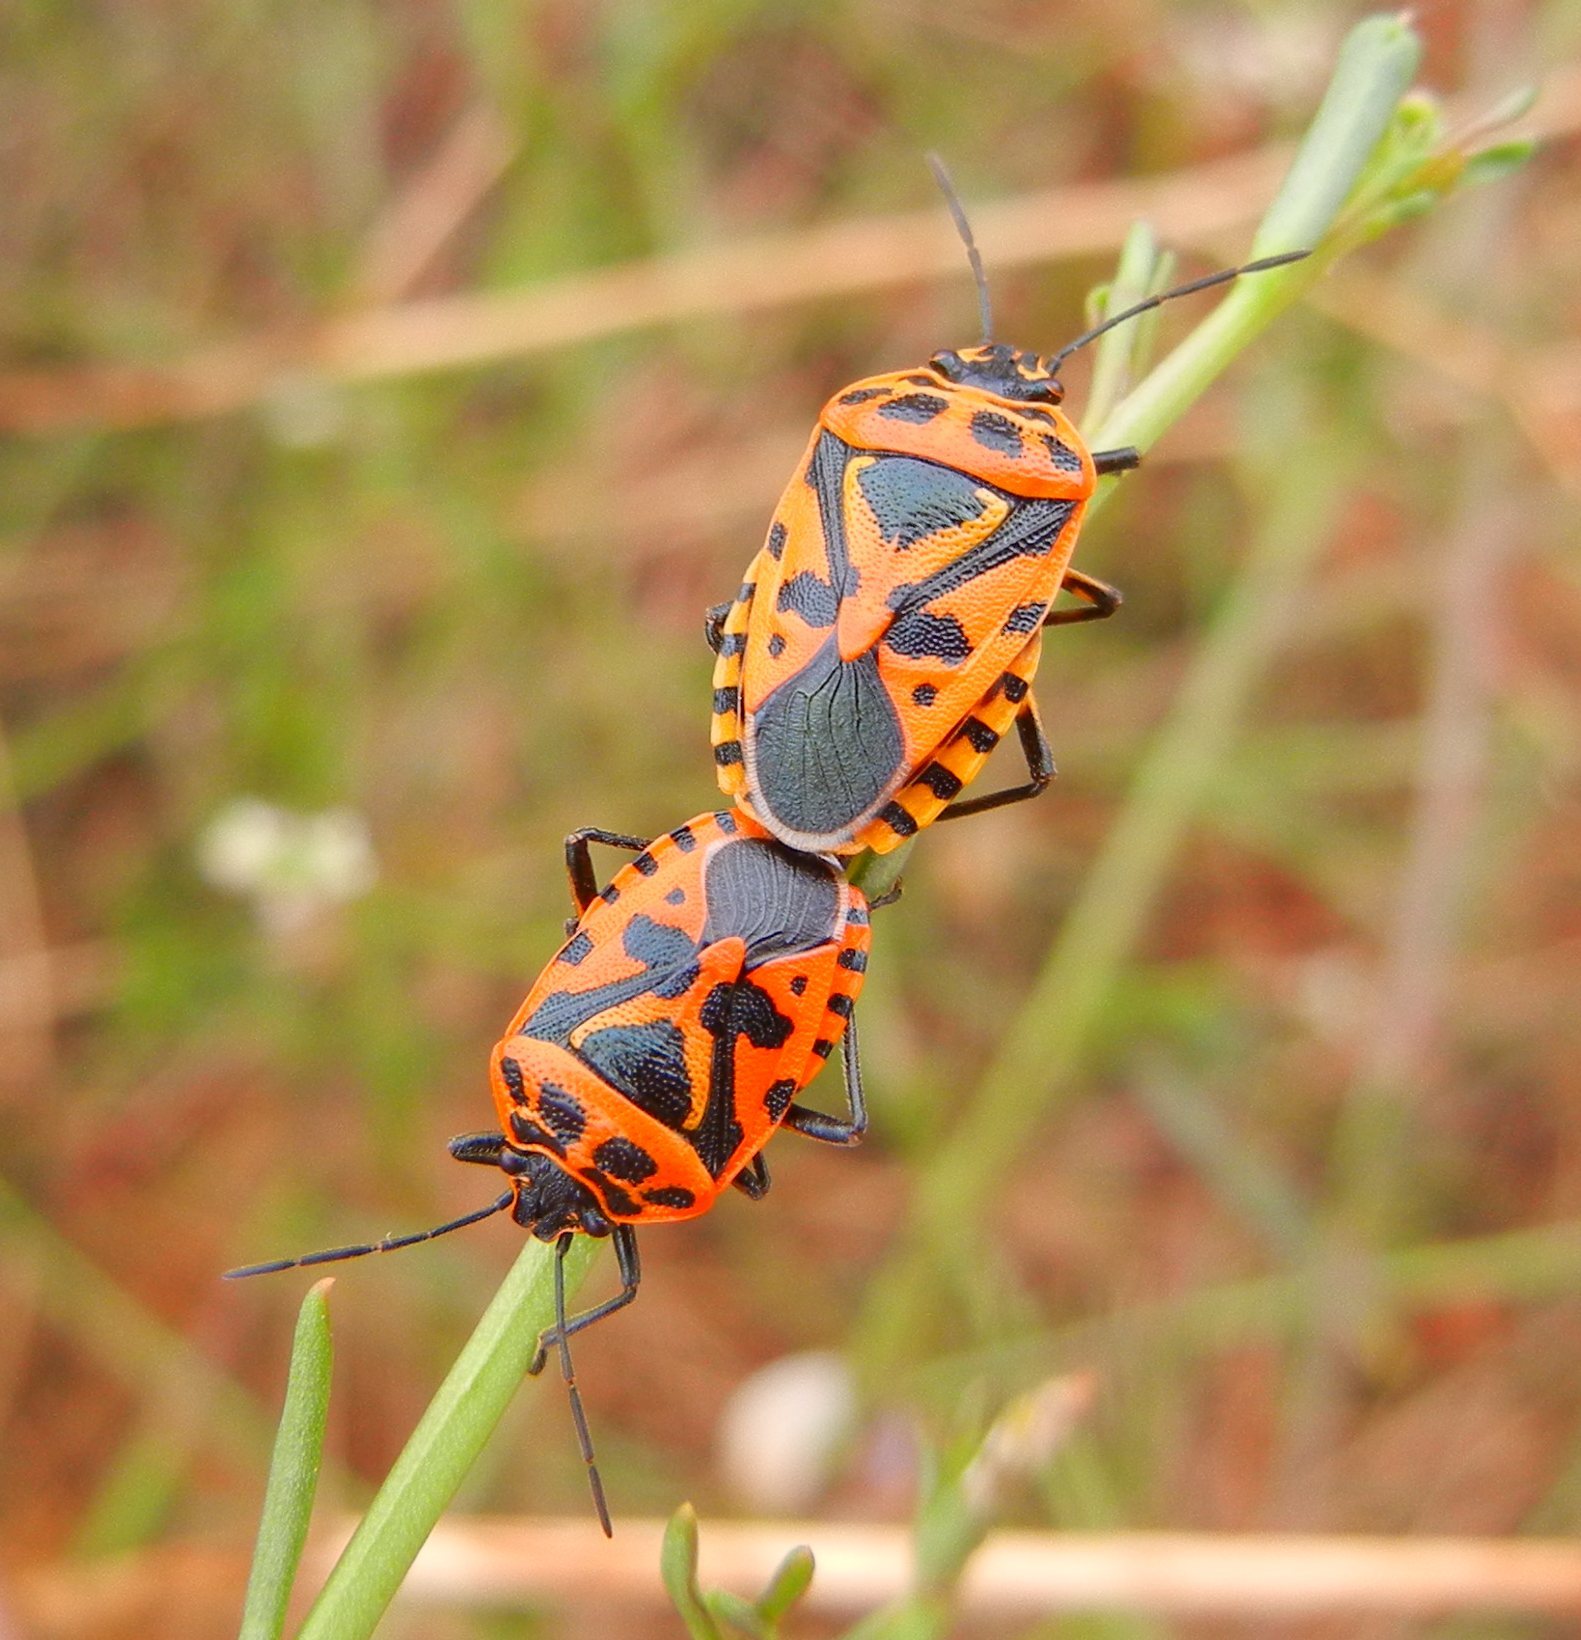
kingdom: Animalia
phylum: Arthropoda
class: Insecta
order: Hemiptera
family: Pentatomidae
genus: Eurydema
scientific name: Eurydema ventralis
